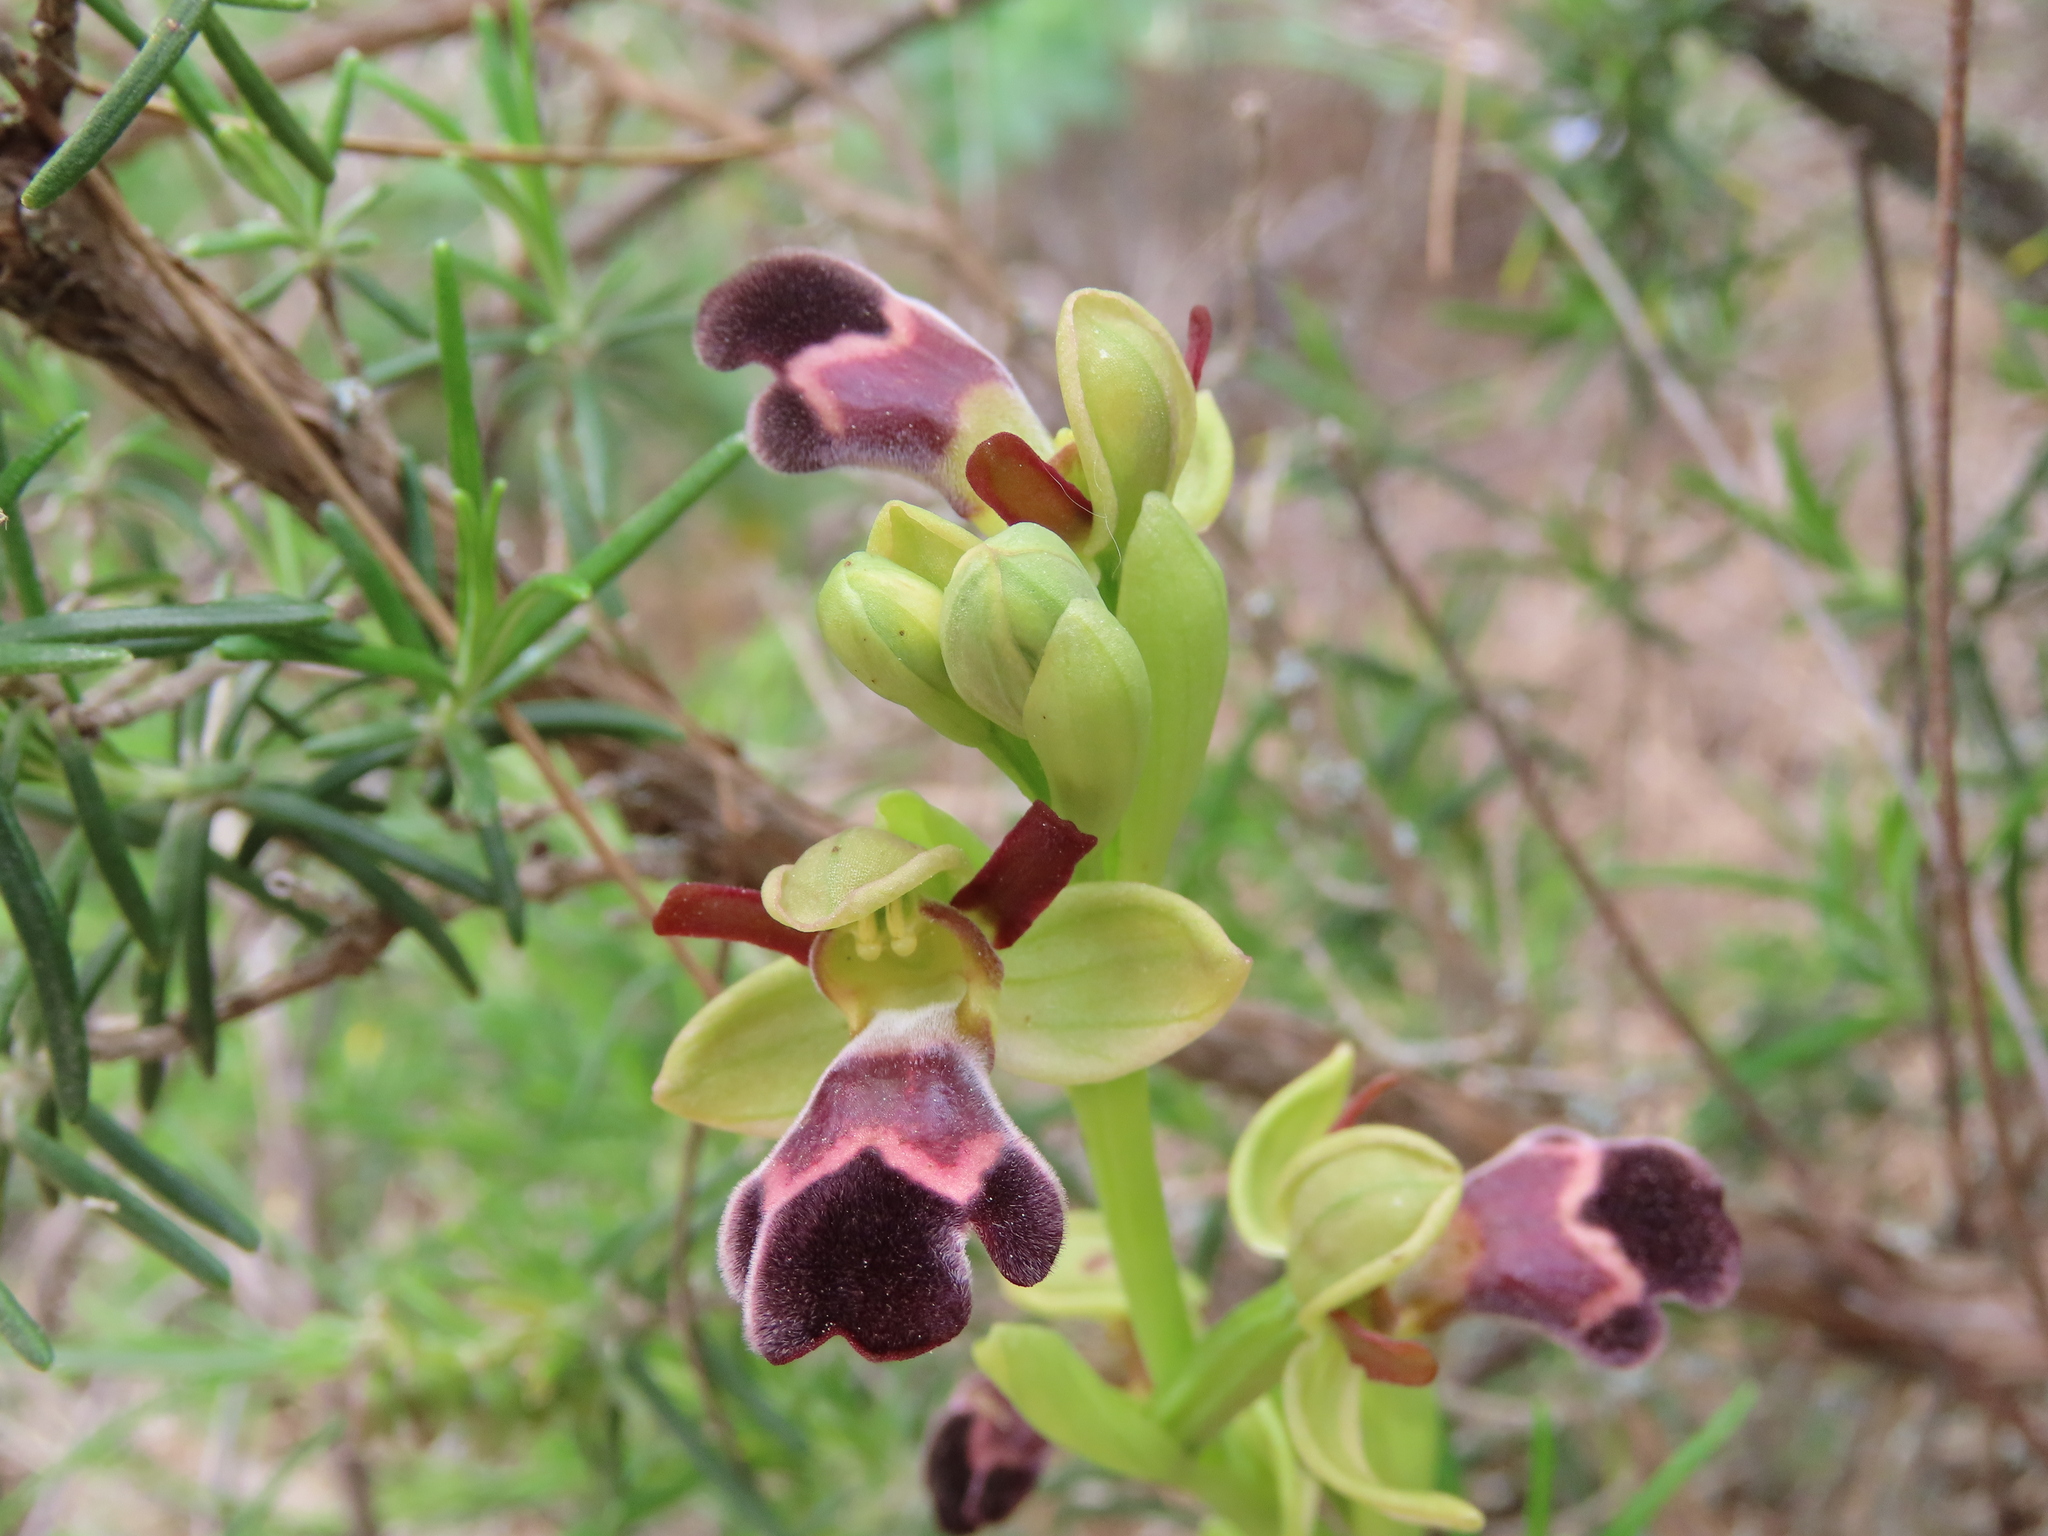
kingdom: Plantae
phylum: Tracheophyta
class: Liliopsida
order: Asparagales
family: Orchidaceae
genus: Ophrys
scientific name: Ophrys omegaifera
